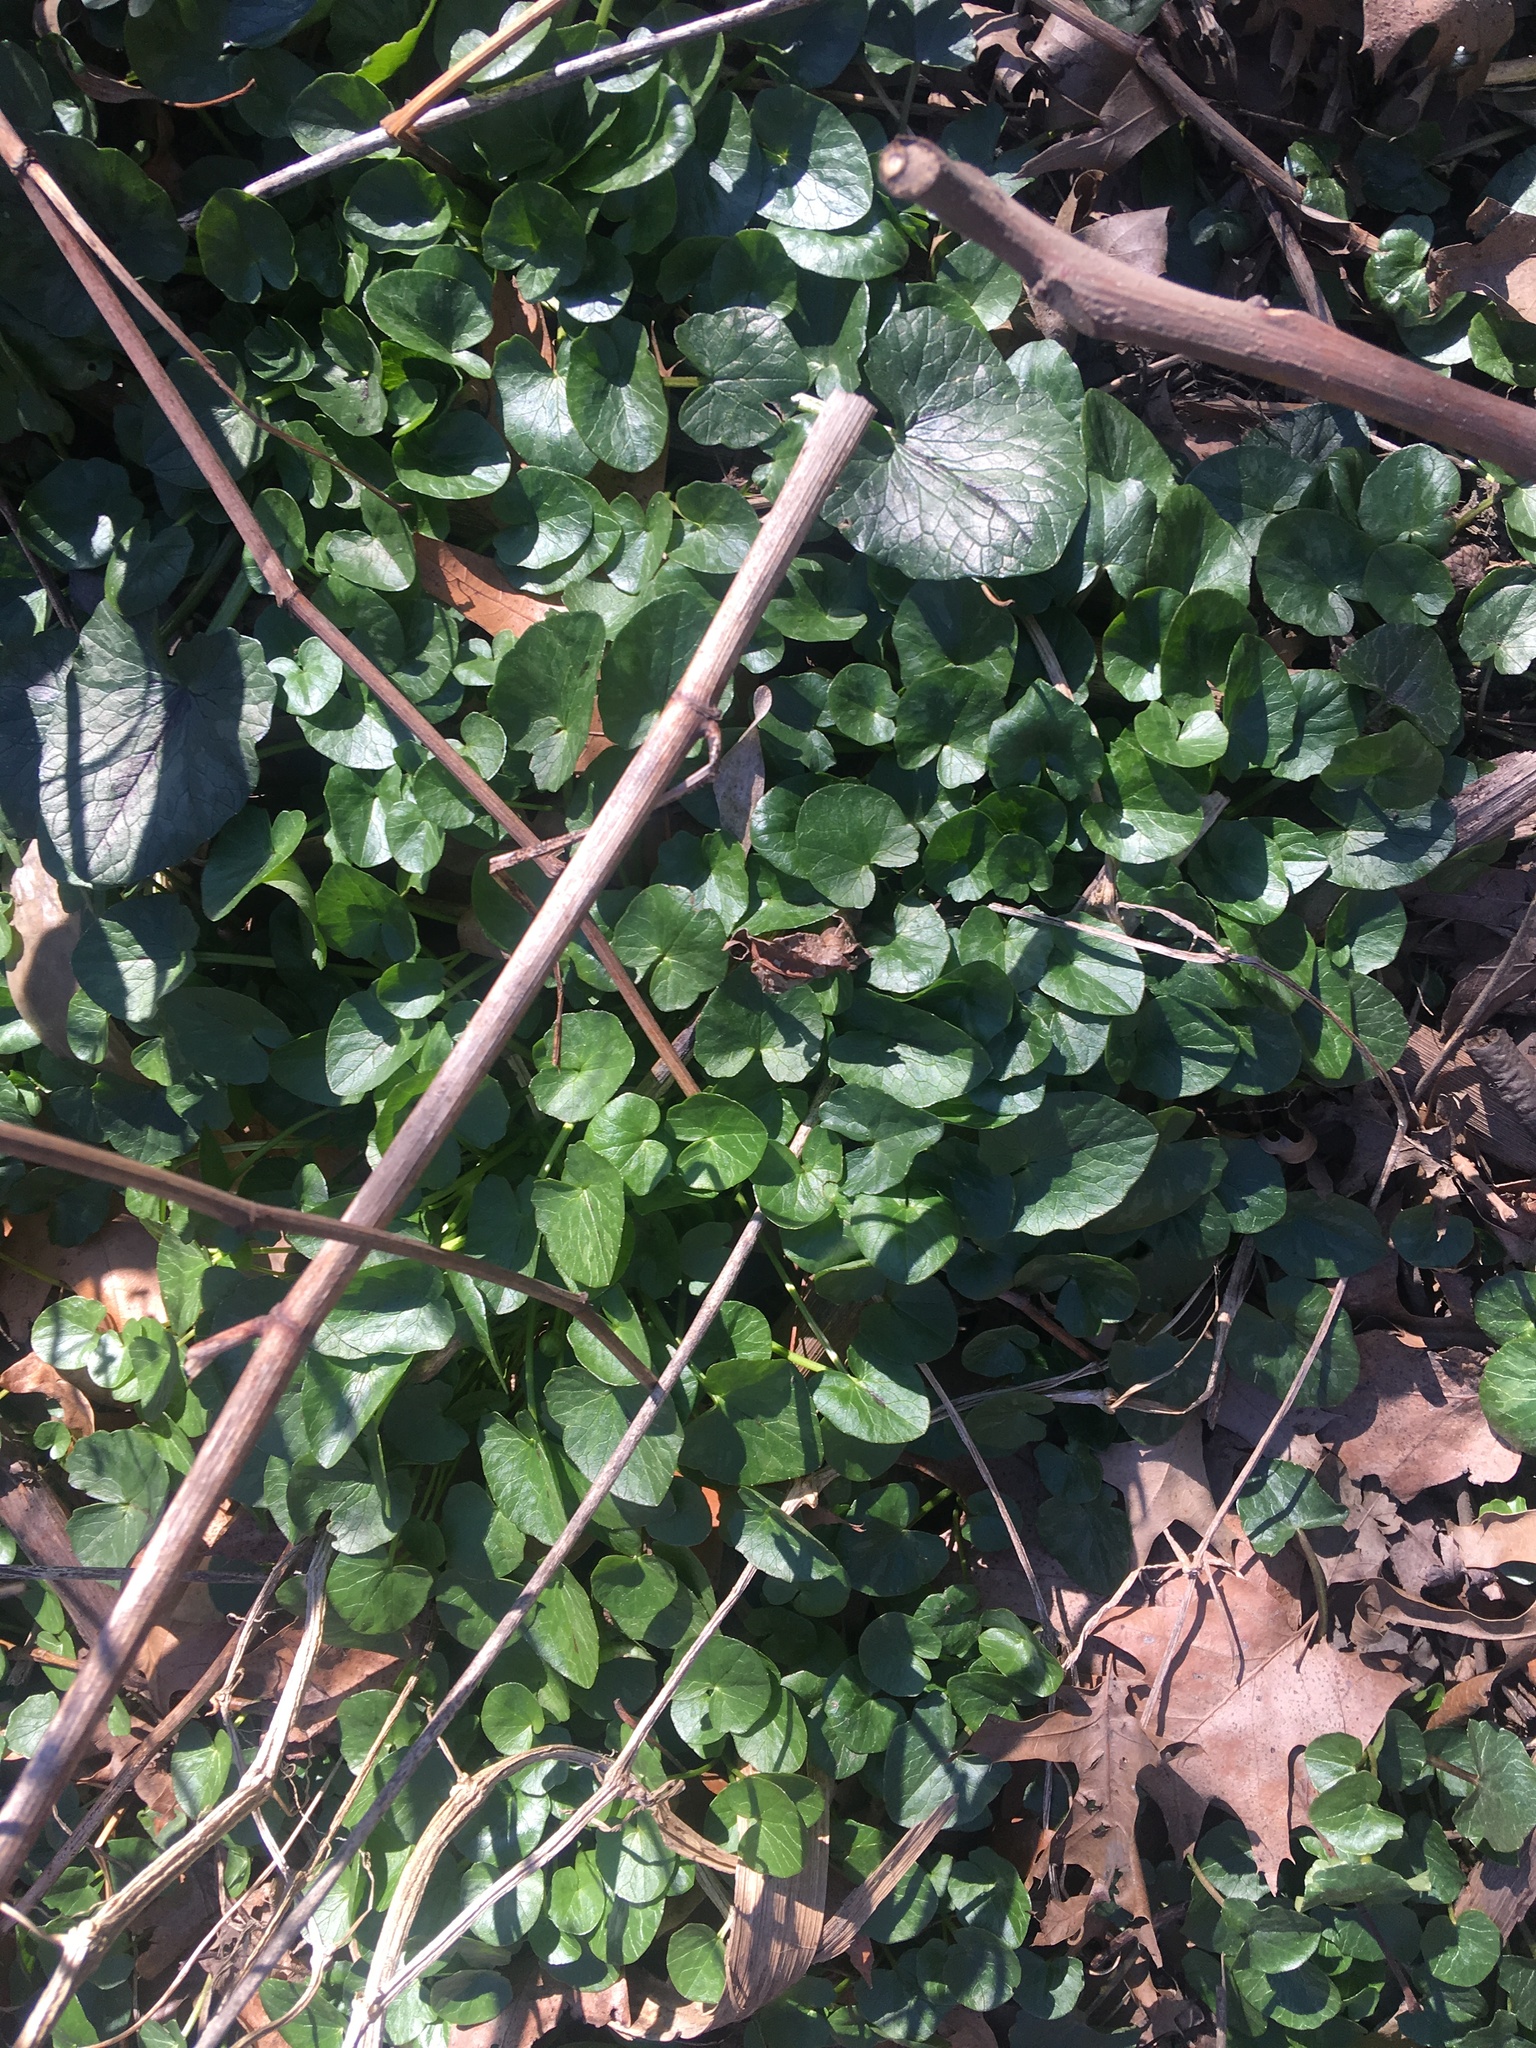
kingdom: Plantae
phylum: Tracheophyta
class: Magnoliopsida
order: Ranunculales
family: Ranunculaceae
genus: Ficaria
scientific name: Ficaria verna
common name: Lesser celandine
